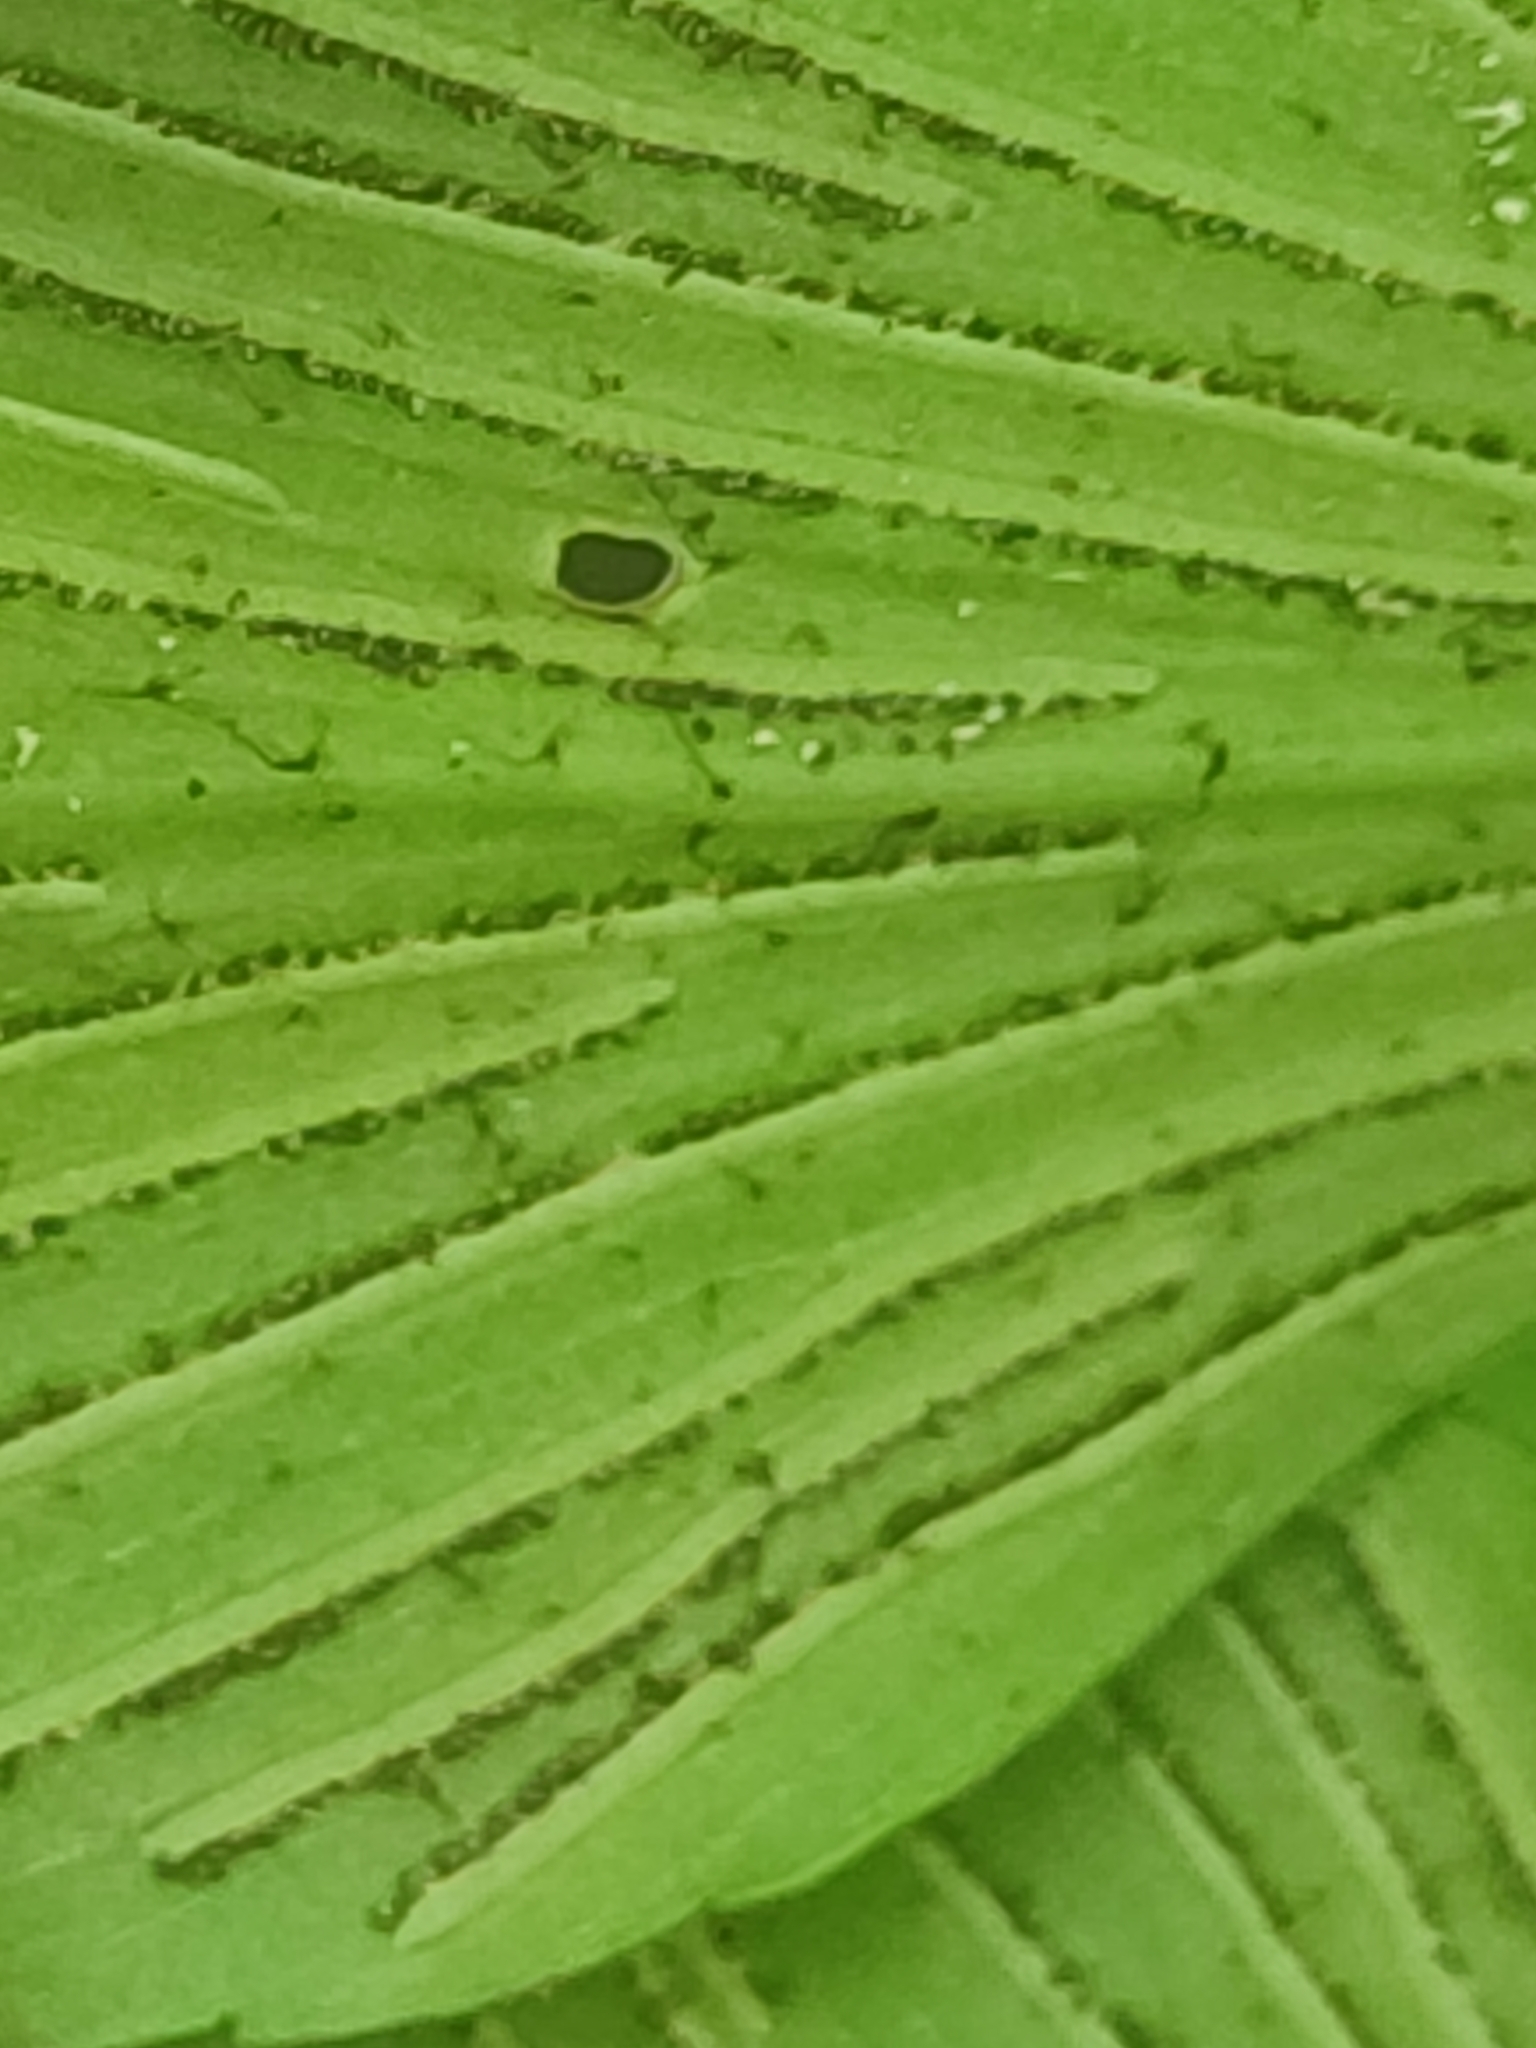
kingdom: Plantae
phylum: Tracheophyta
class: Polypodiopsida
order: Polypodiales
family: Aspleniaceae
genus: Asplenium
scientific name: Asplenium macrophyllum
